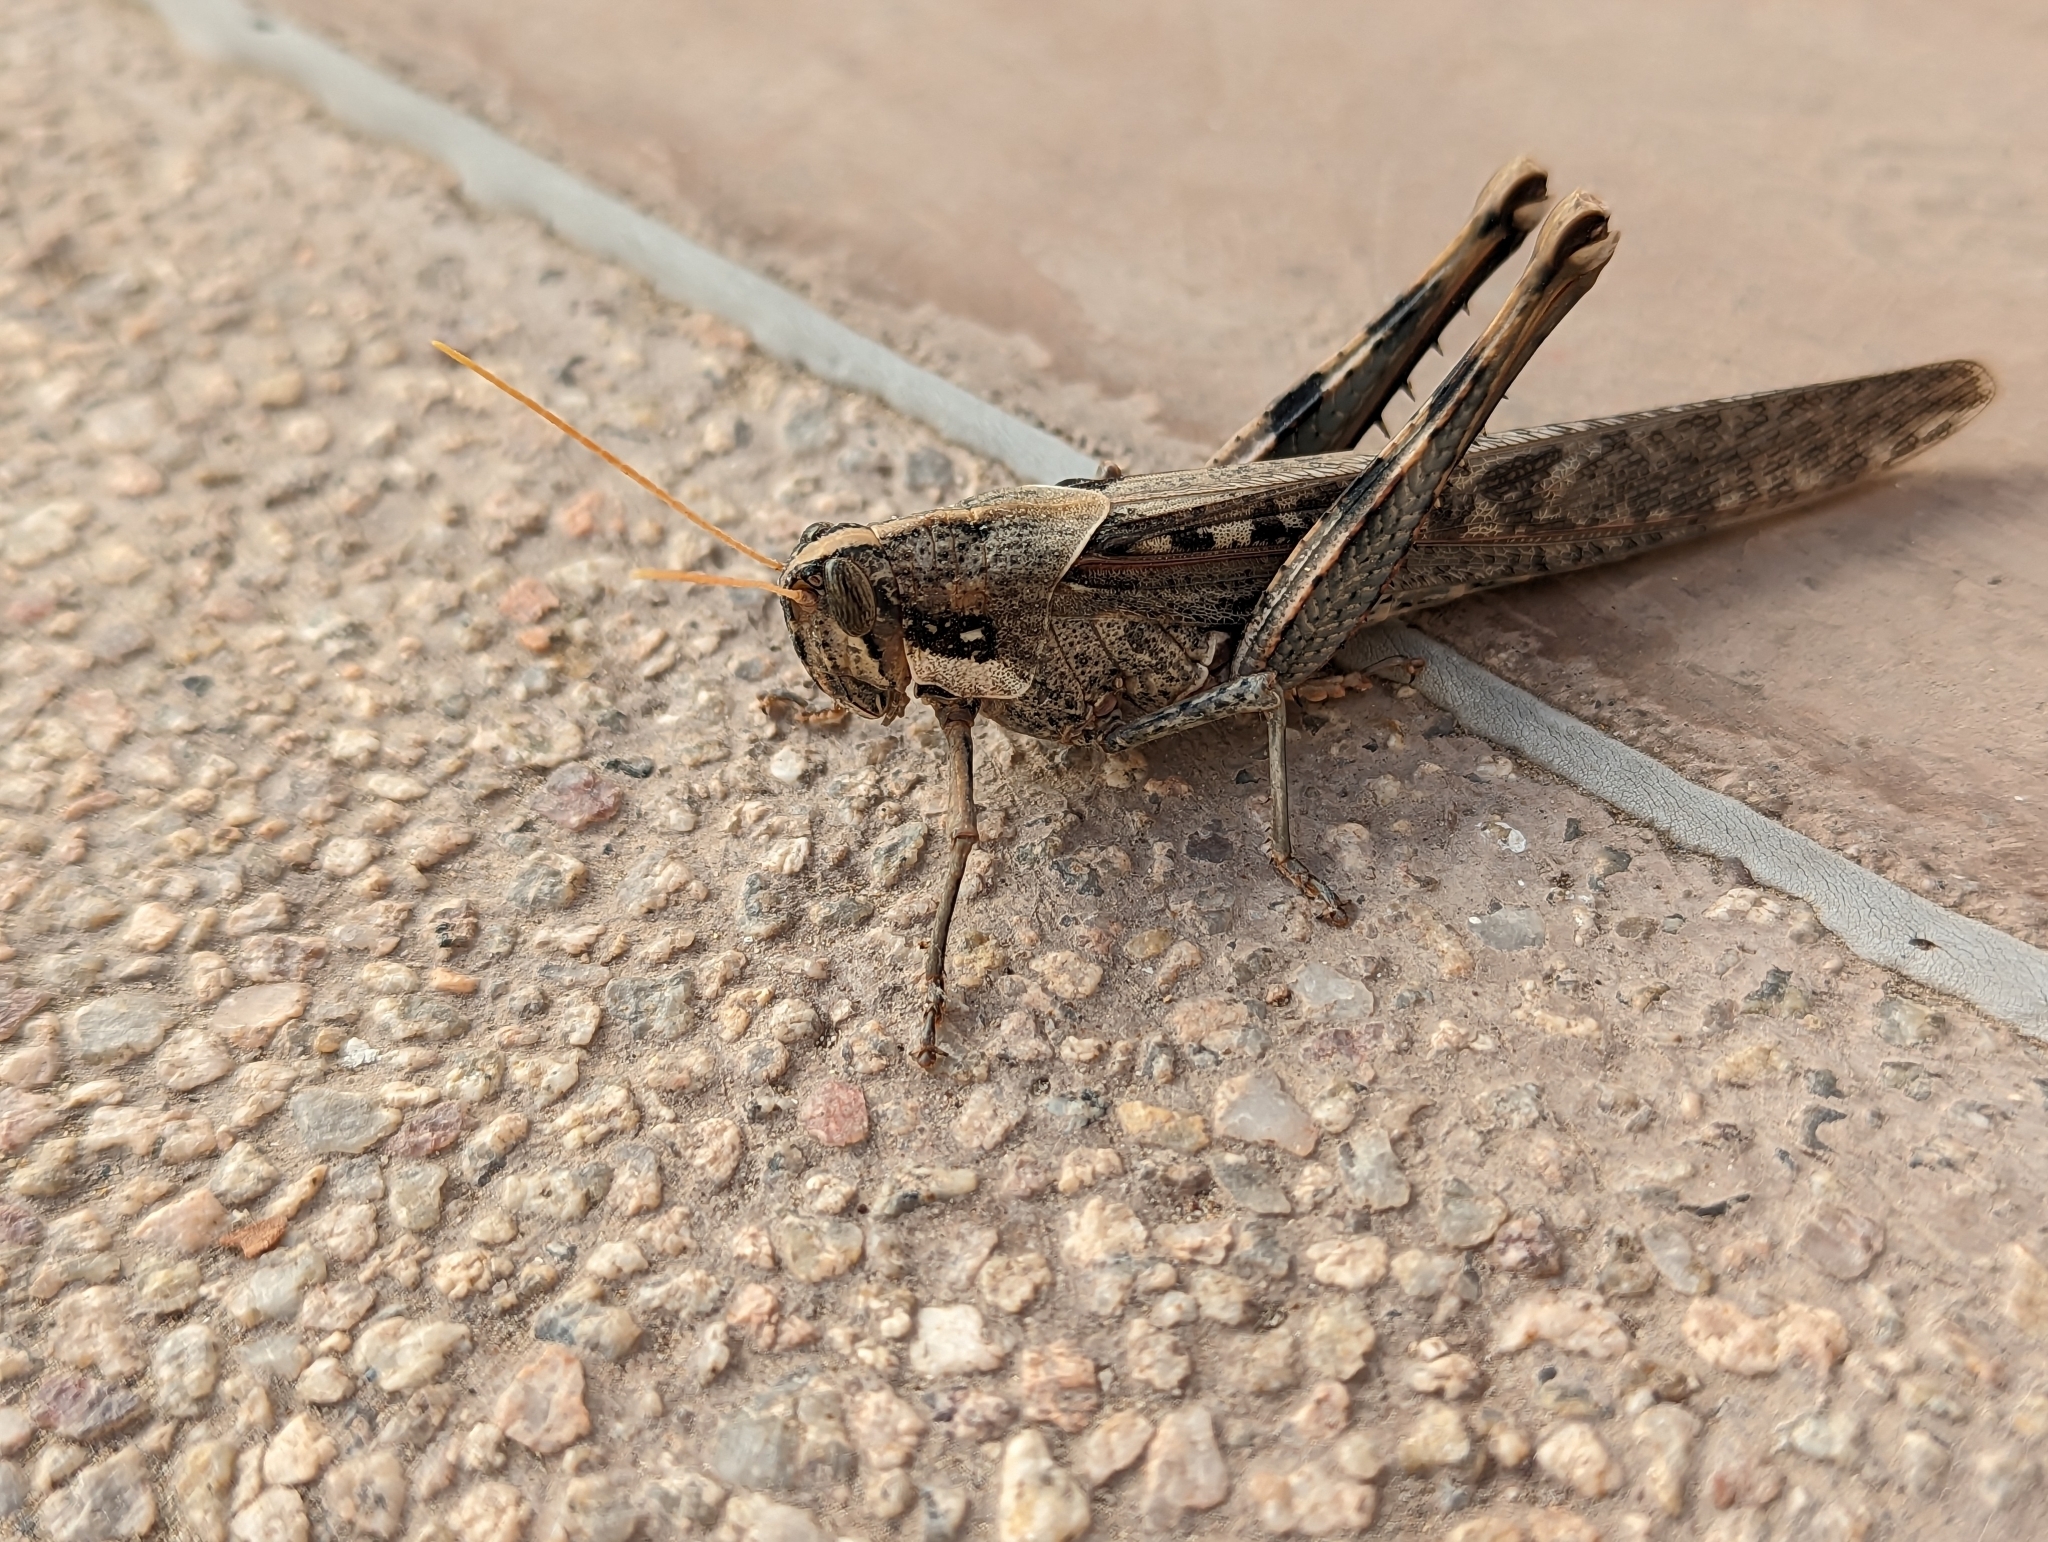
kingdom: Animalia
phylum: Arthropoda
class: Insecta
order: Orthoptera
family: Acrididae
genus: Schistocerca
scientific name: Schistocerca nitens
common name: Vagrant grasshopper
